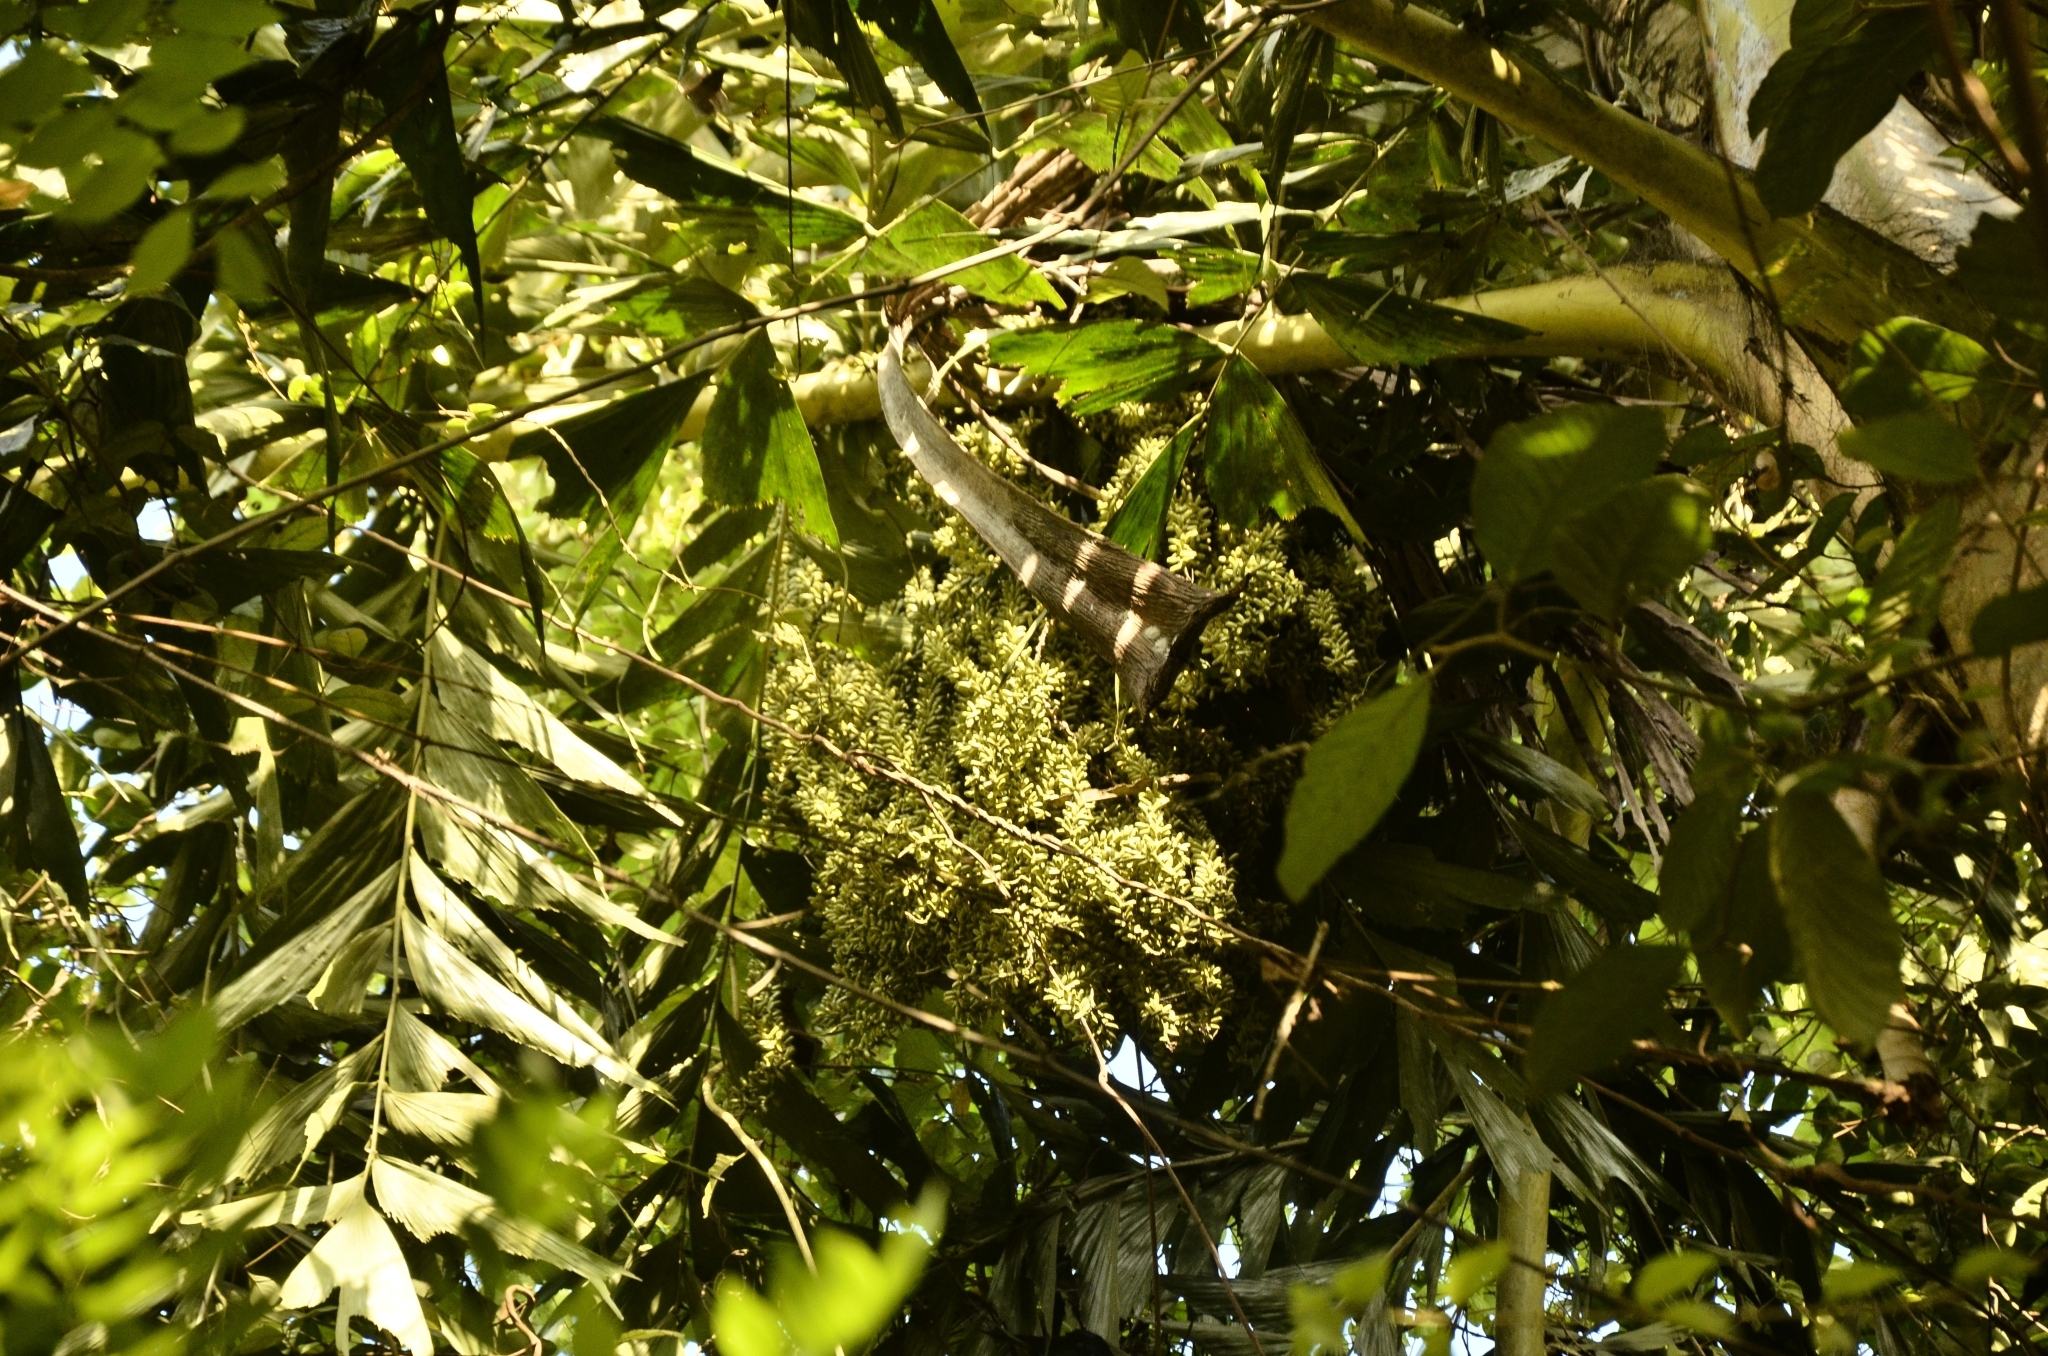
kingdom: Plantae
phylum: Tracheophyta
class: Liliopsida
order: Arecales
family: Arecaceae
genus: Caryota
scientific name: Caryota urens
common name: Jaggery palm
